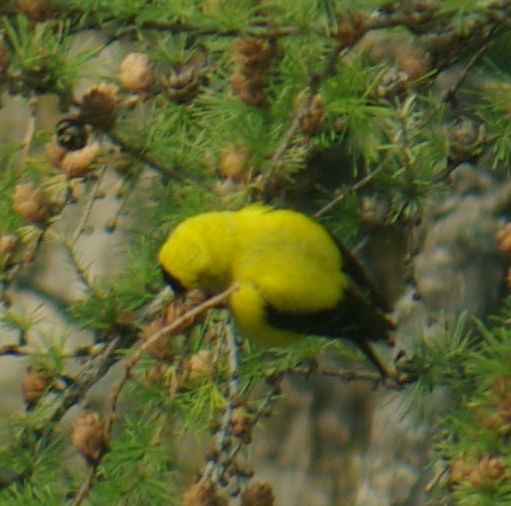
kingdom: Animalia
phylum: Chordata
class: Aves
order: Passeriformes
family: Fringillidae
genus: Spinus
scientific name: Spinus tristis
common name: American goldfinch
